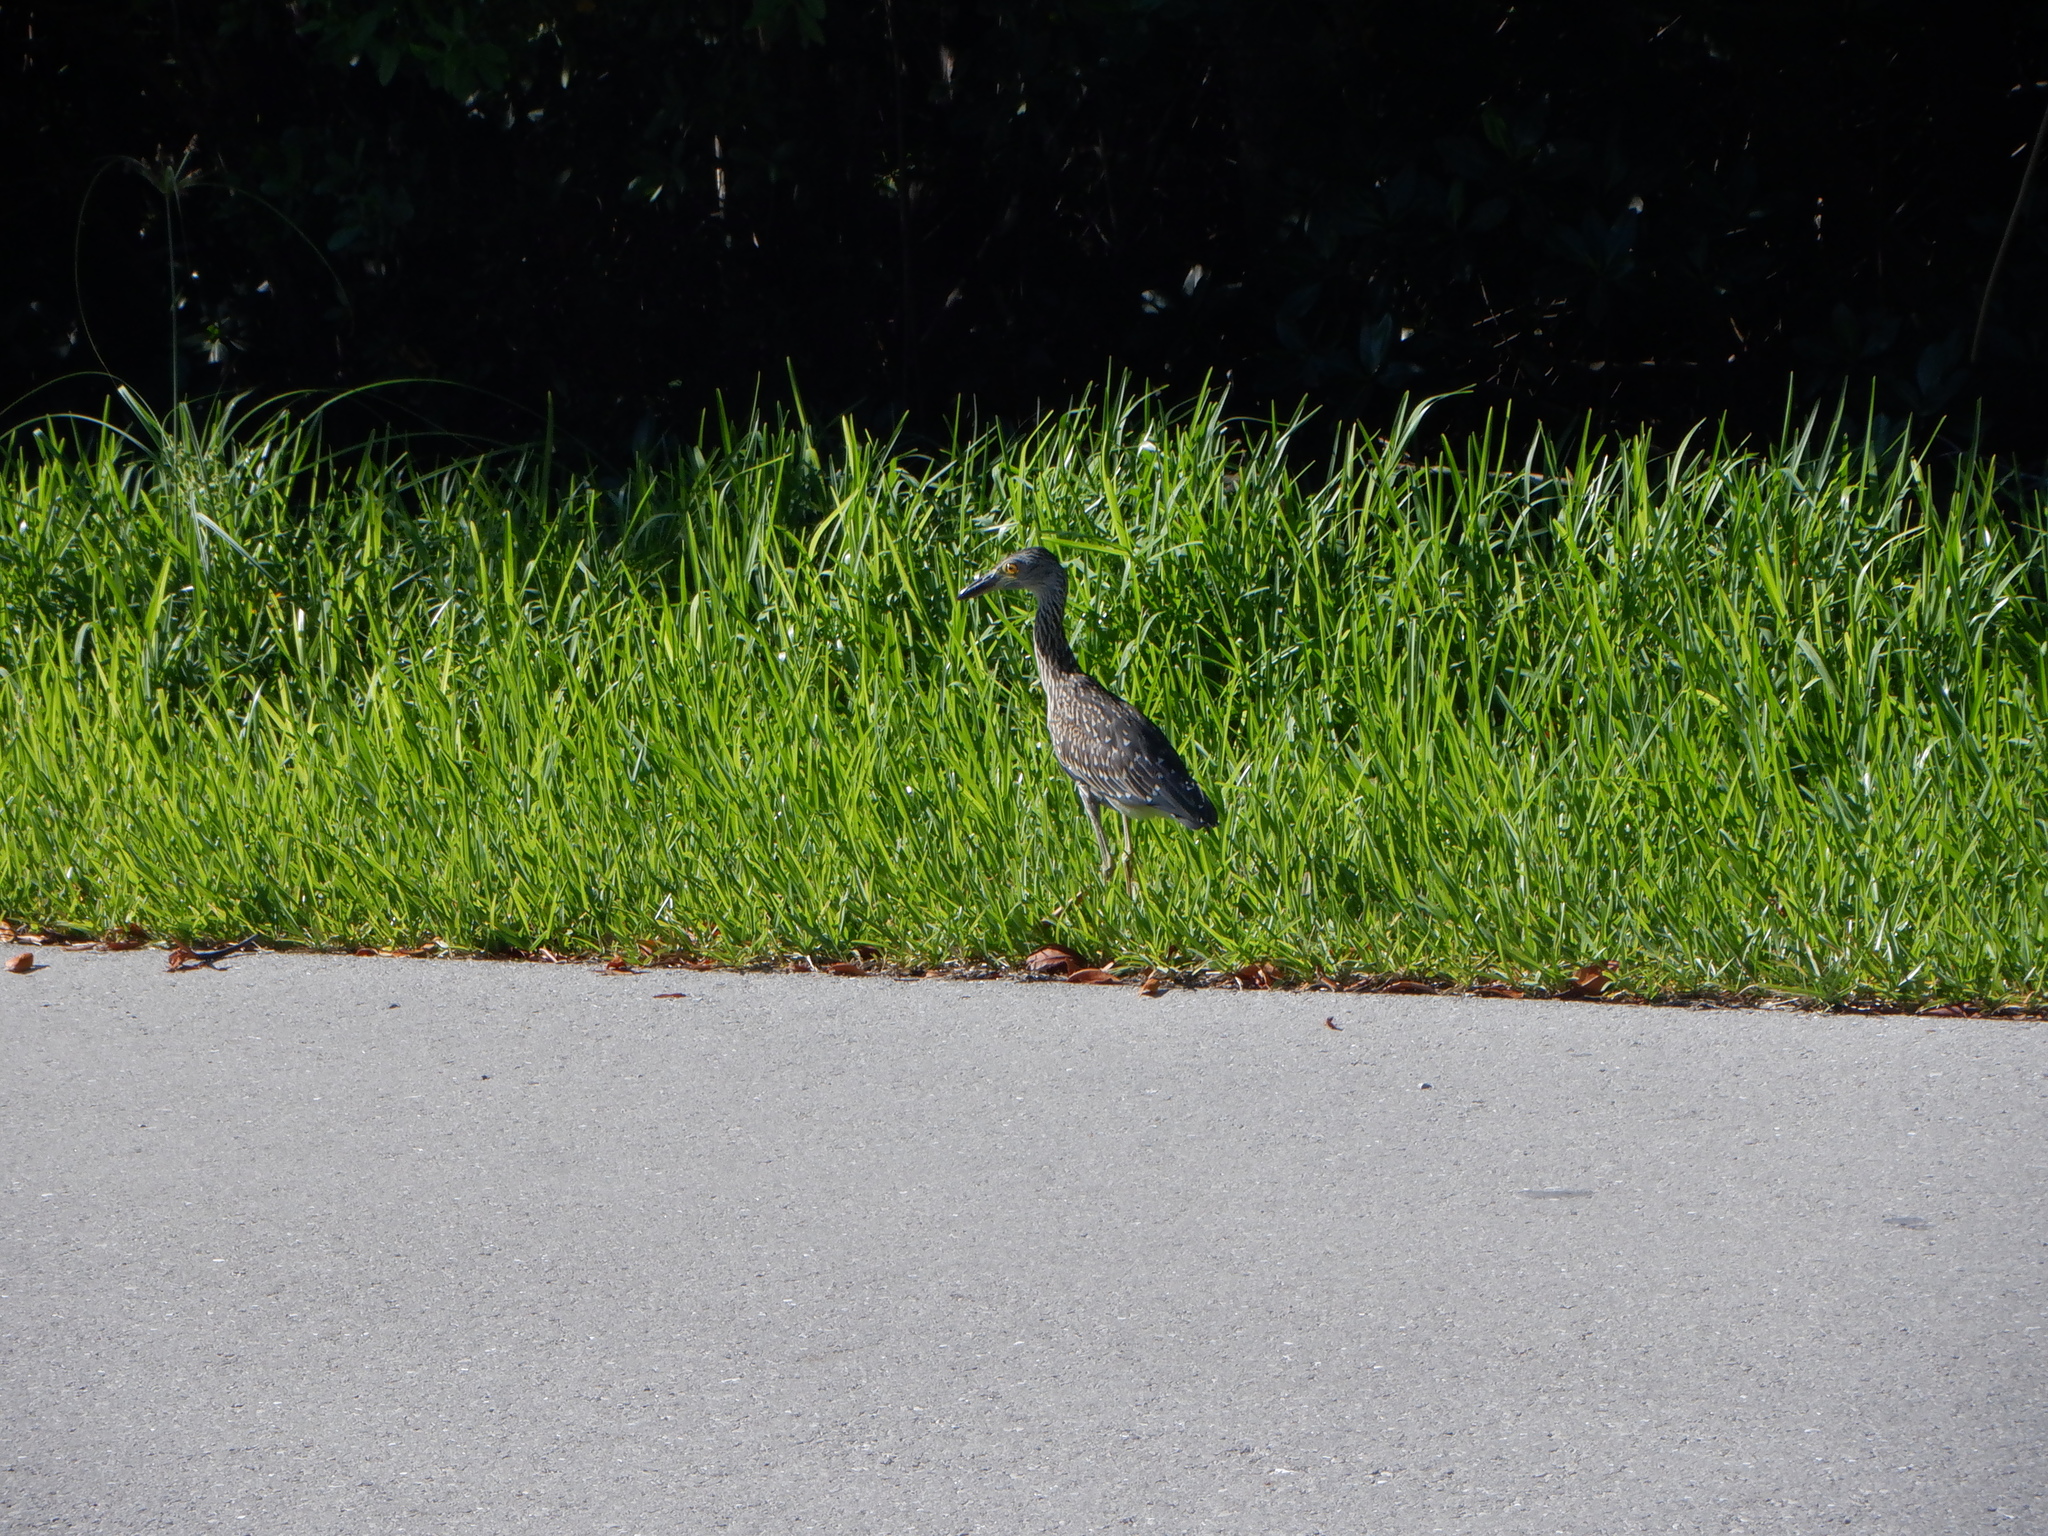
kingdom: Animalia
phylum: Chordata
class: Aves
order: Pelecaniformes
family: Ardeidae
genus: Nyctanassa
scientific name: Nyctanassa violacea
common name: Yellow-crowned night heron
